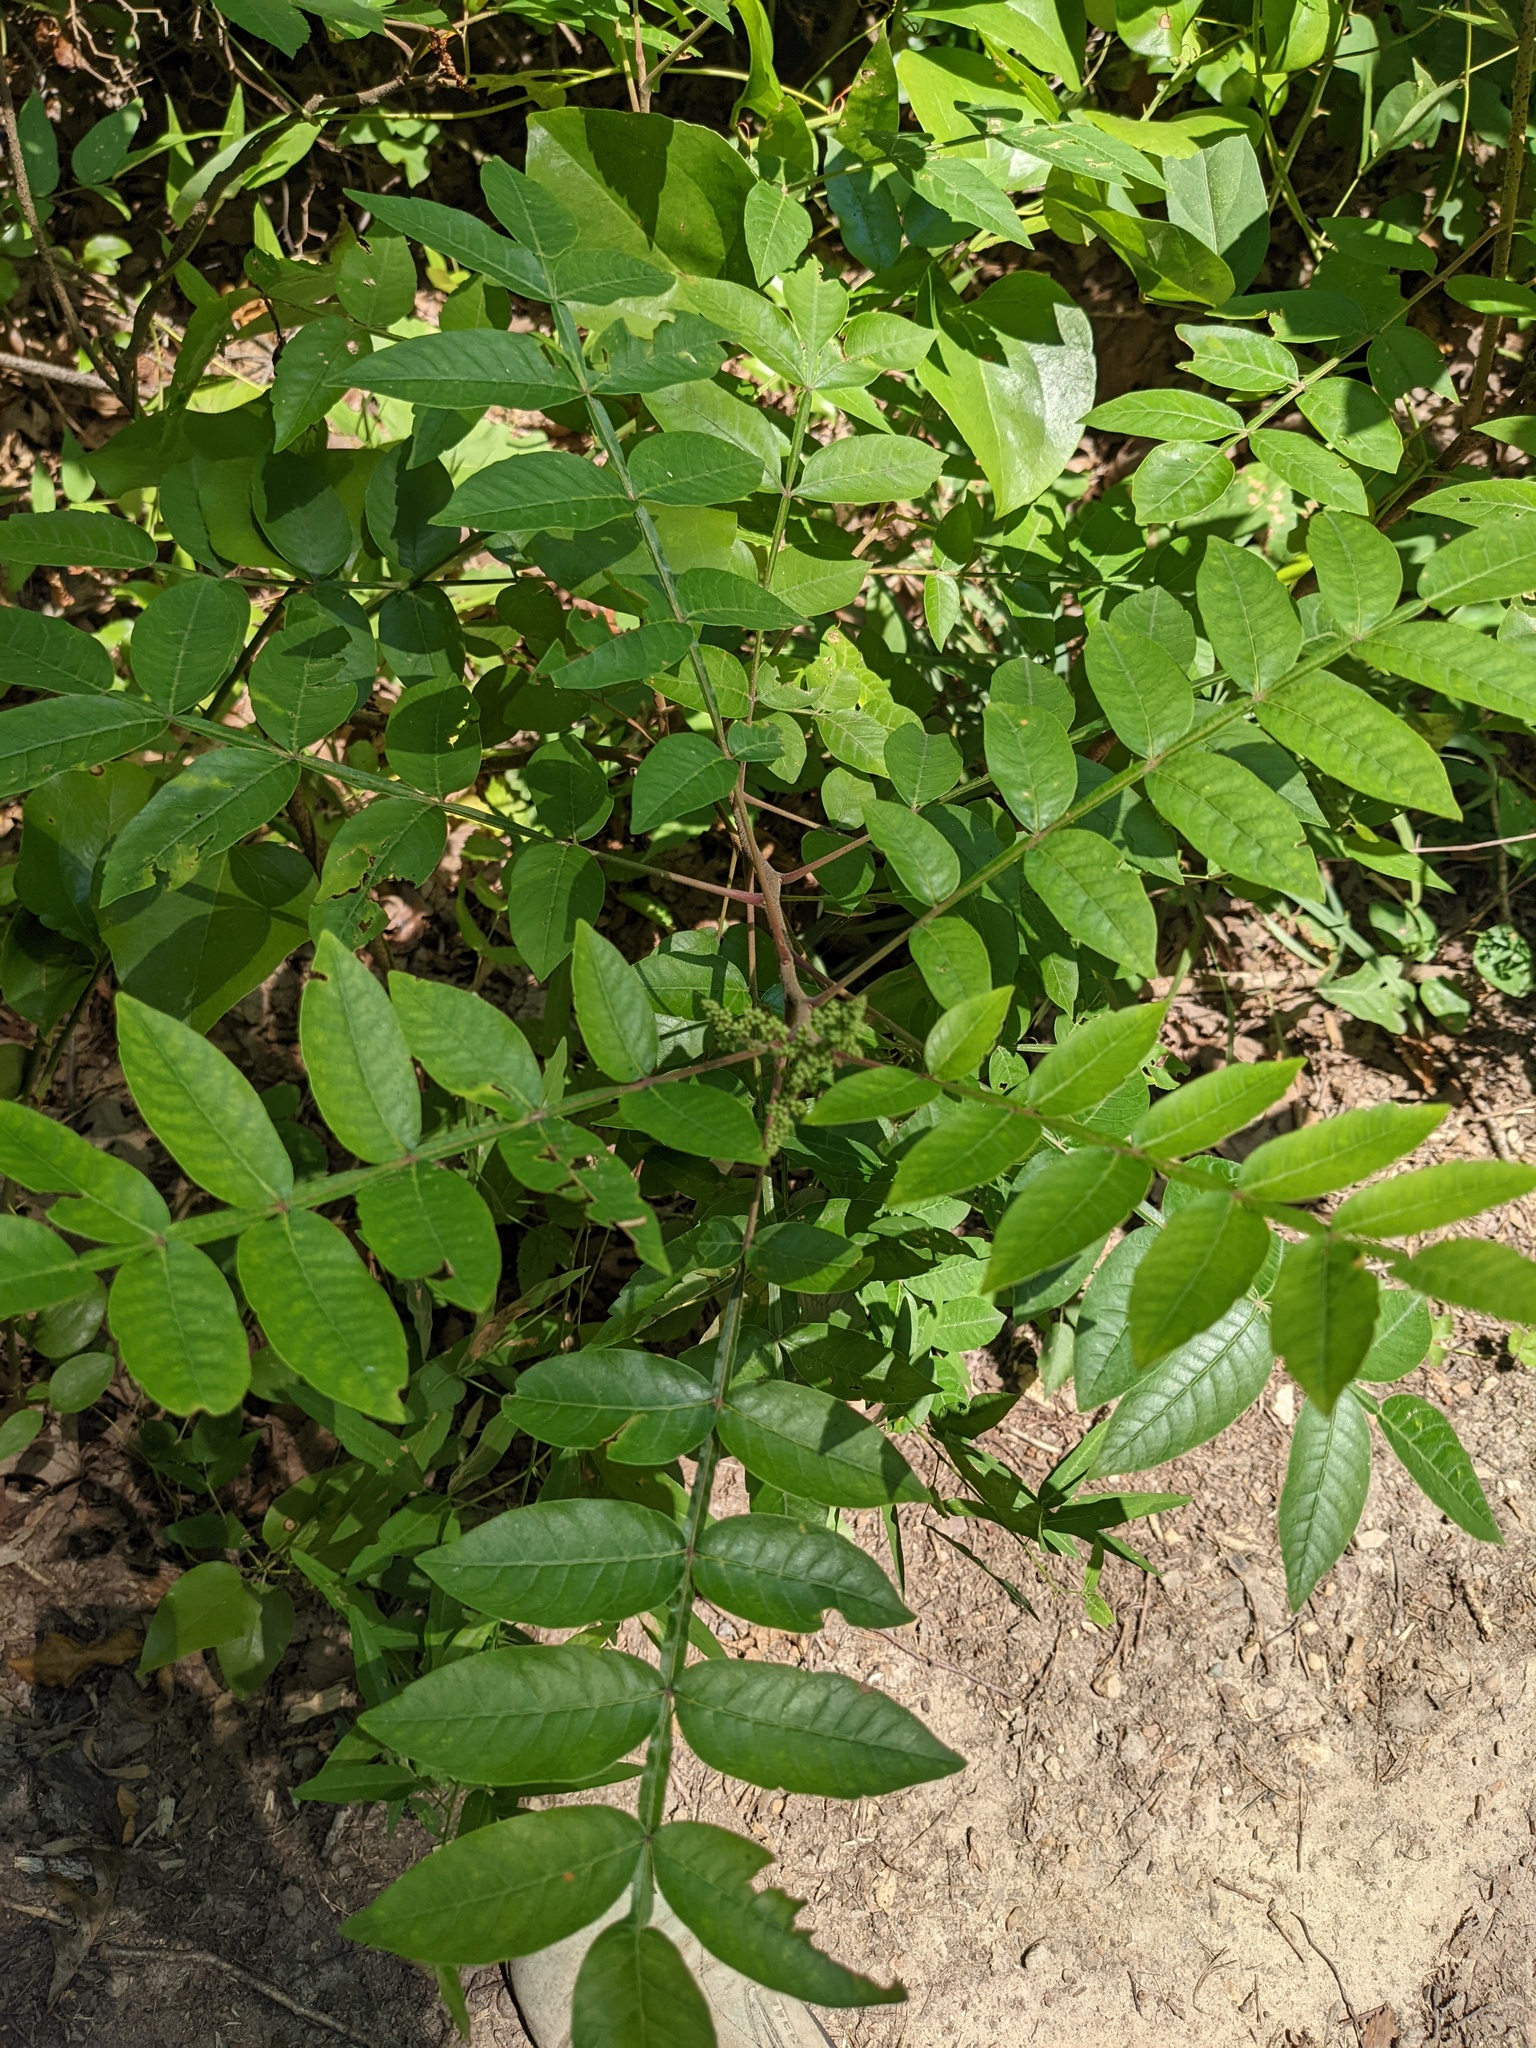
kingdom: Plantae
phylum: Tracheophyta
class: Magnoliopsida
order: Sapindales
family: Anacardiaceae
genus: Rhus
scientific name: Rhus copallina
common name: Shining sumac
